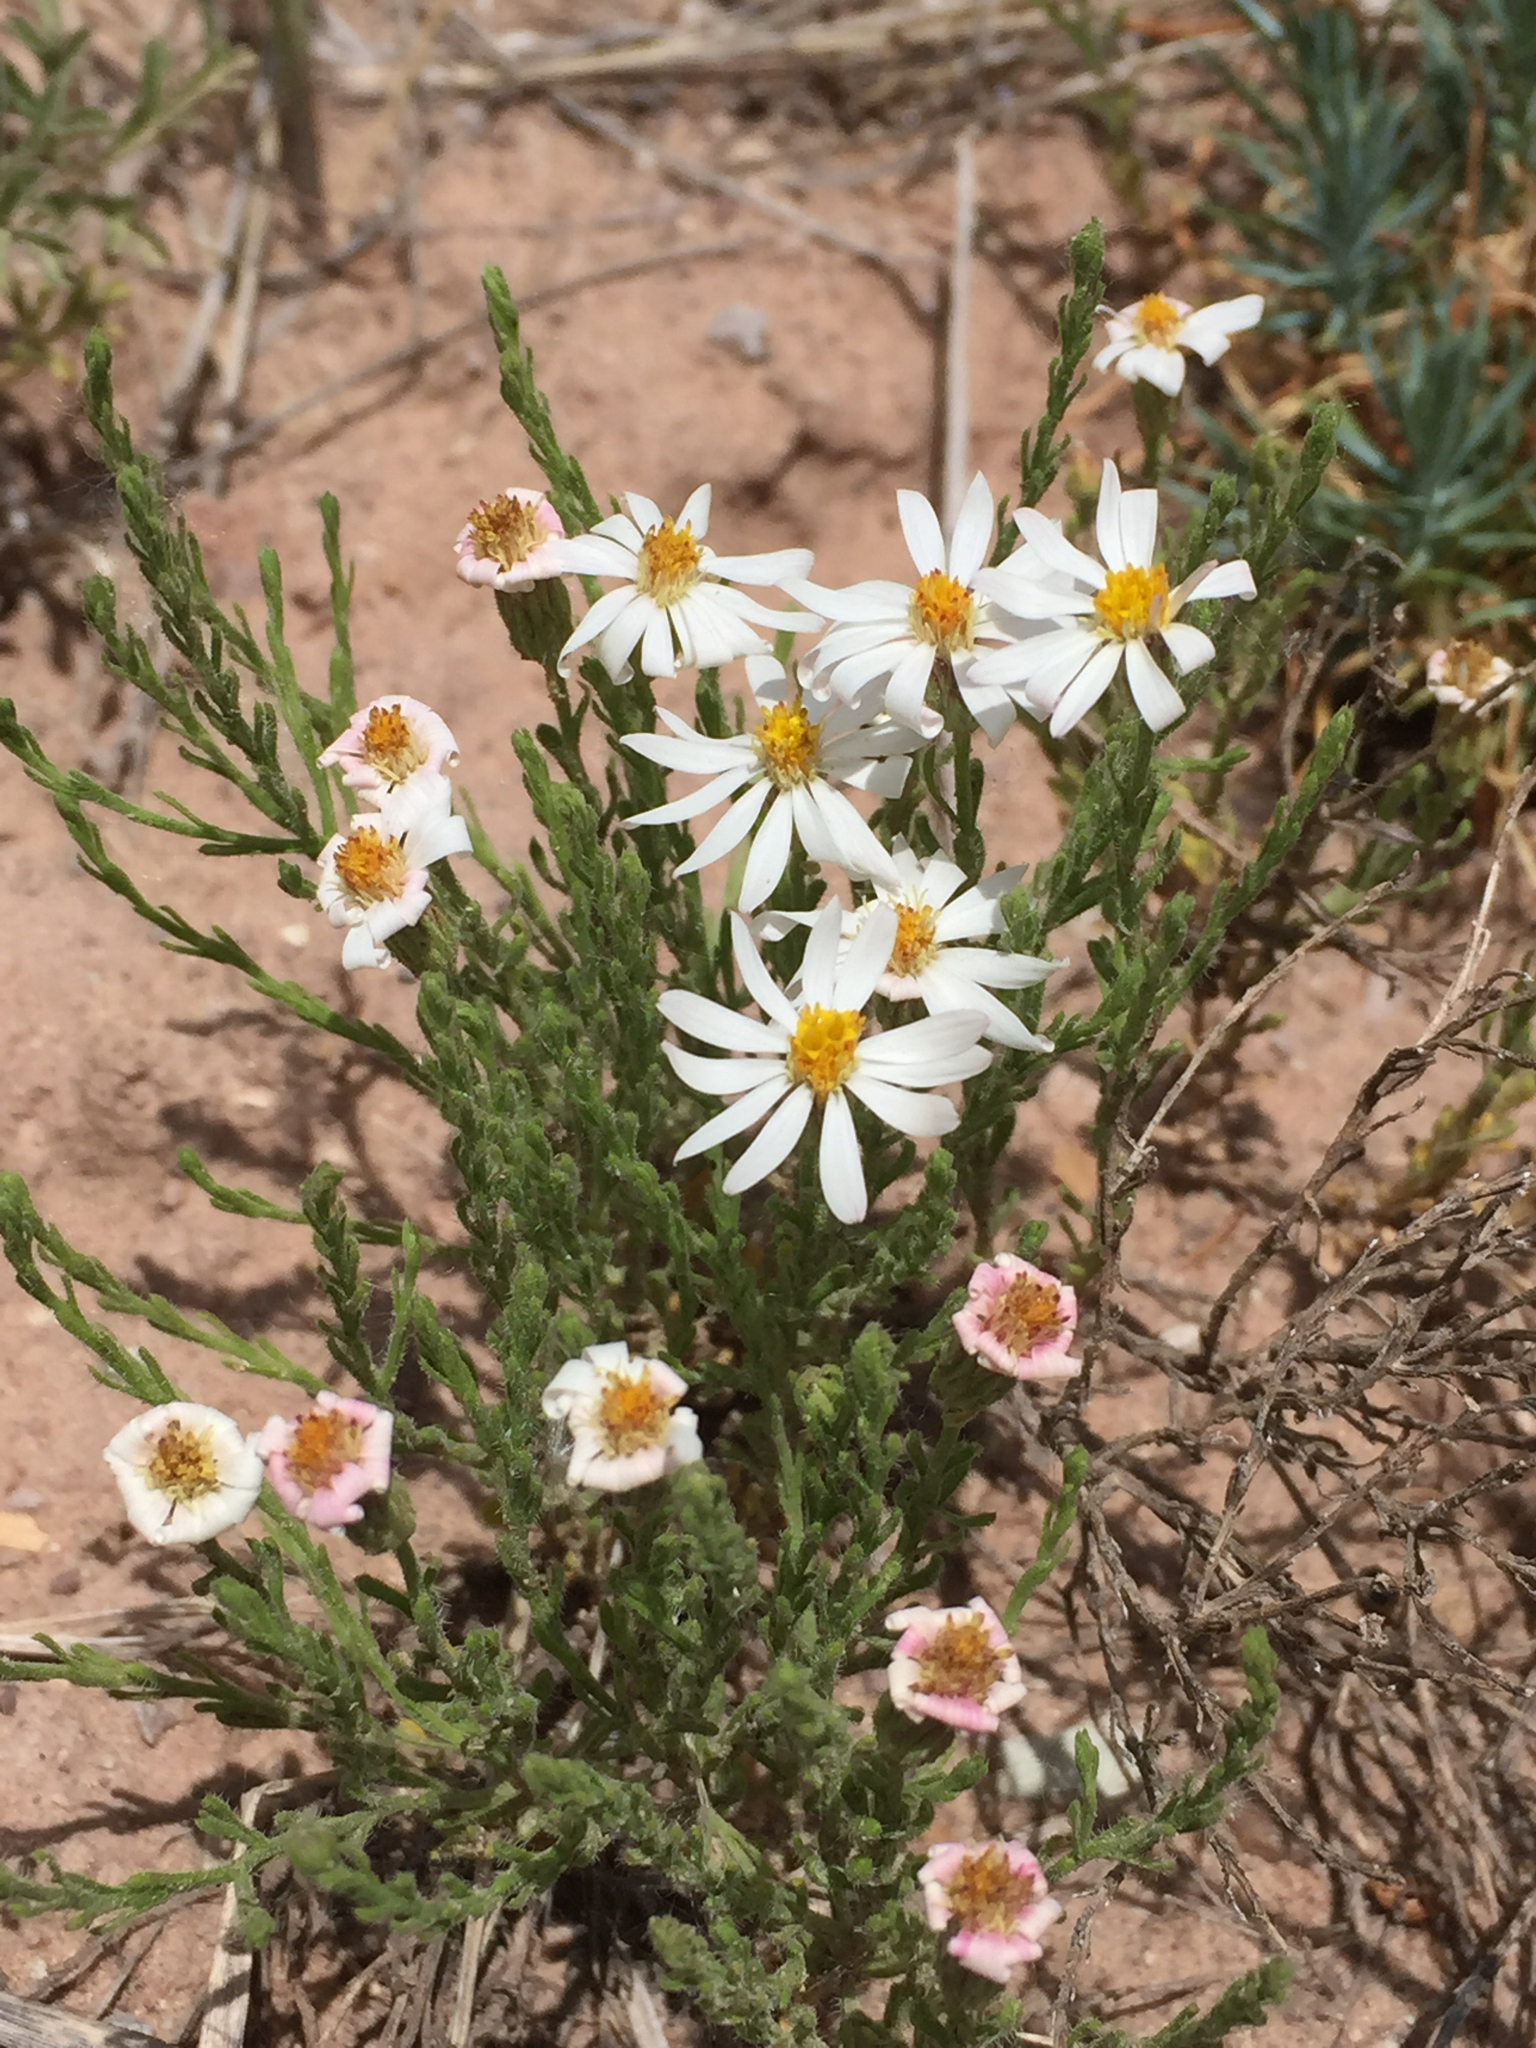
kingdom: Plantae
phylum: Tracheophyta
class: Magnoliopsida
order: Asterales
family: Asteraceae
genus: Chaetopappa
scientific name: Chaetopappa ericoides
